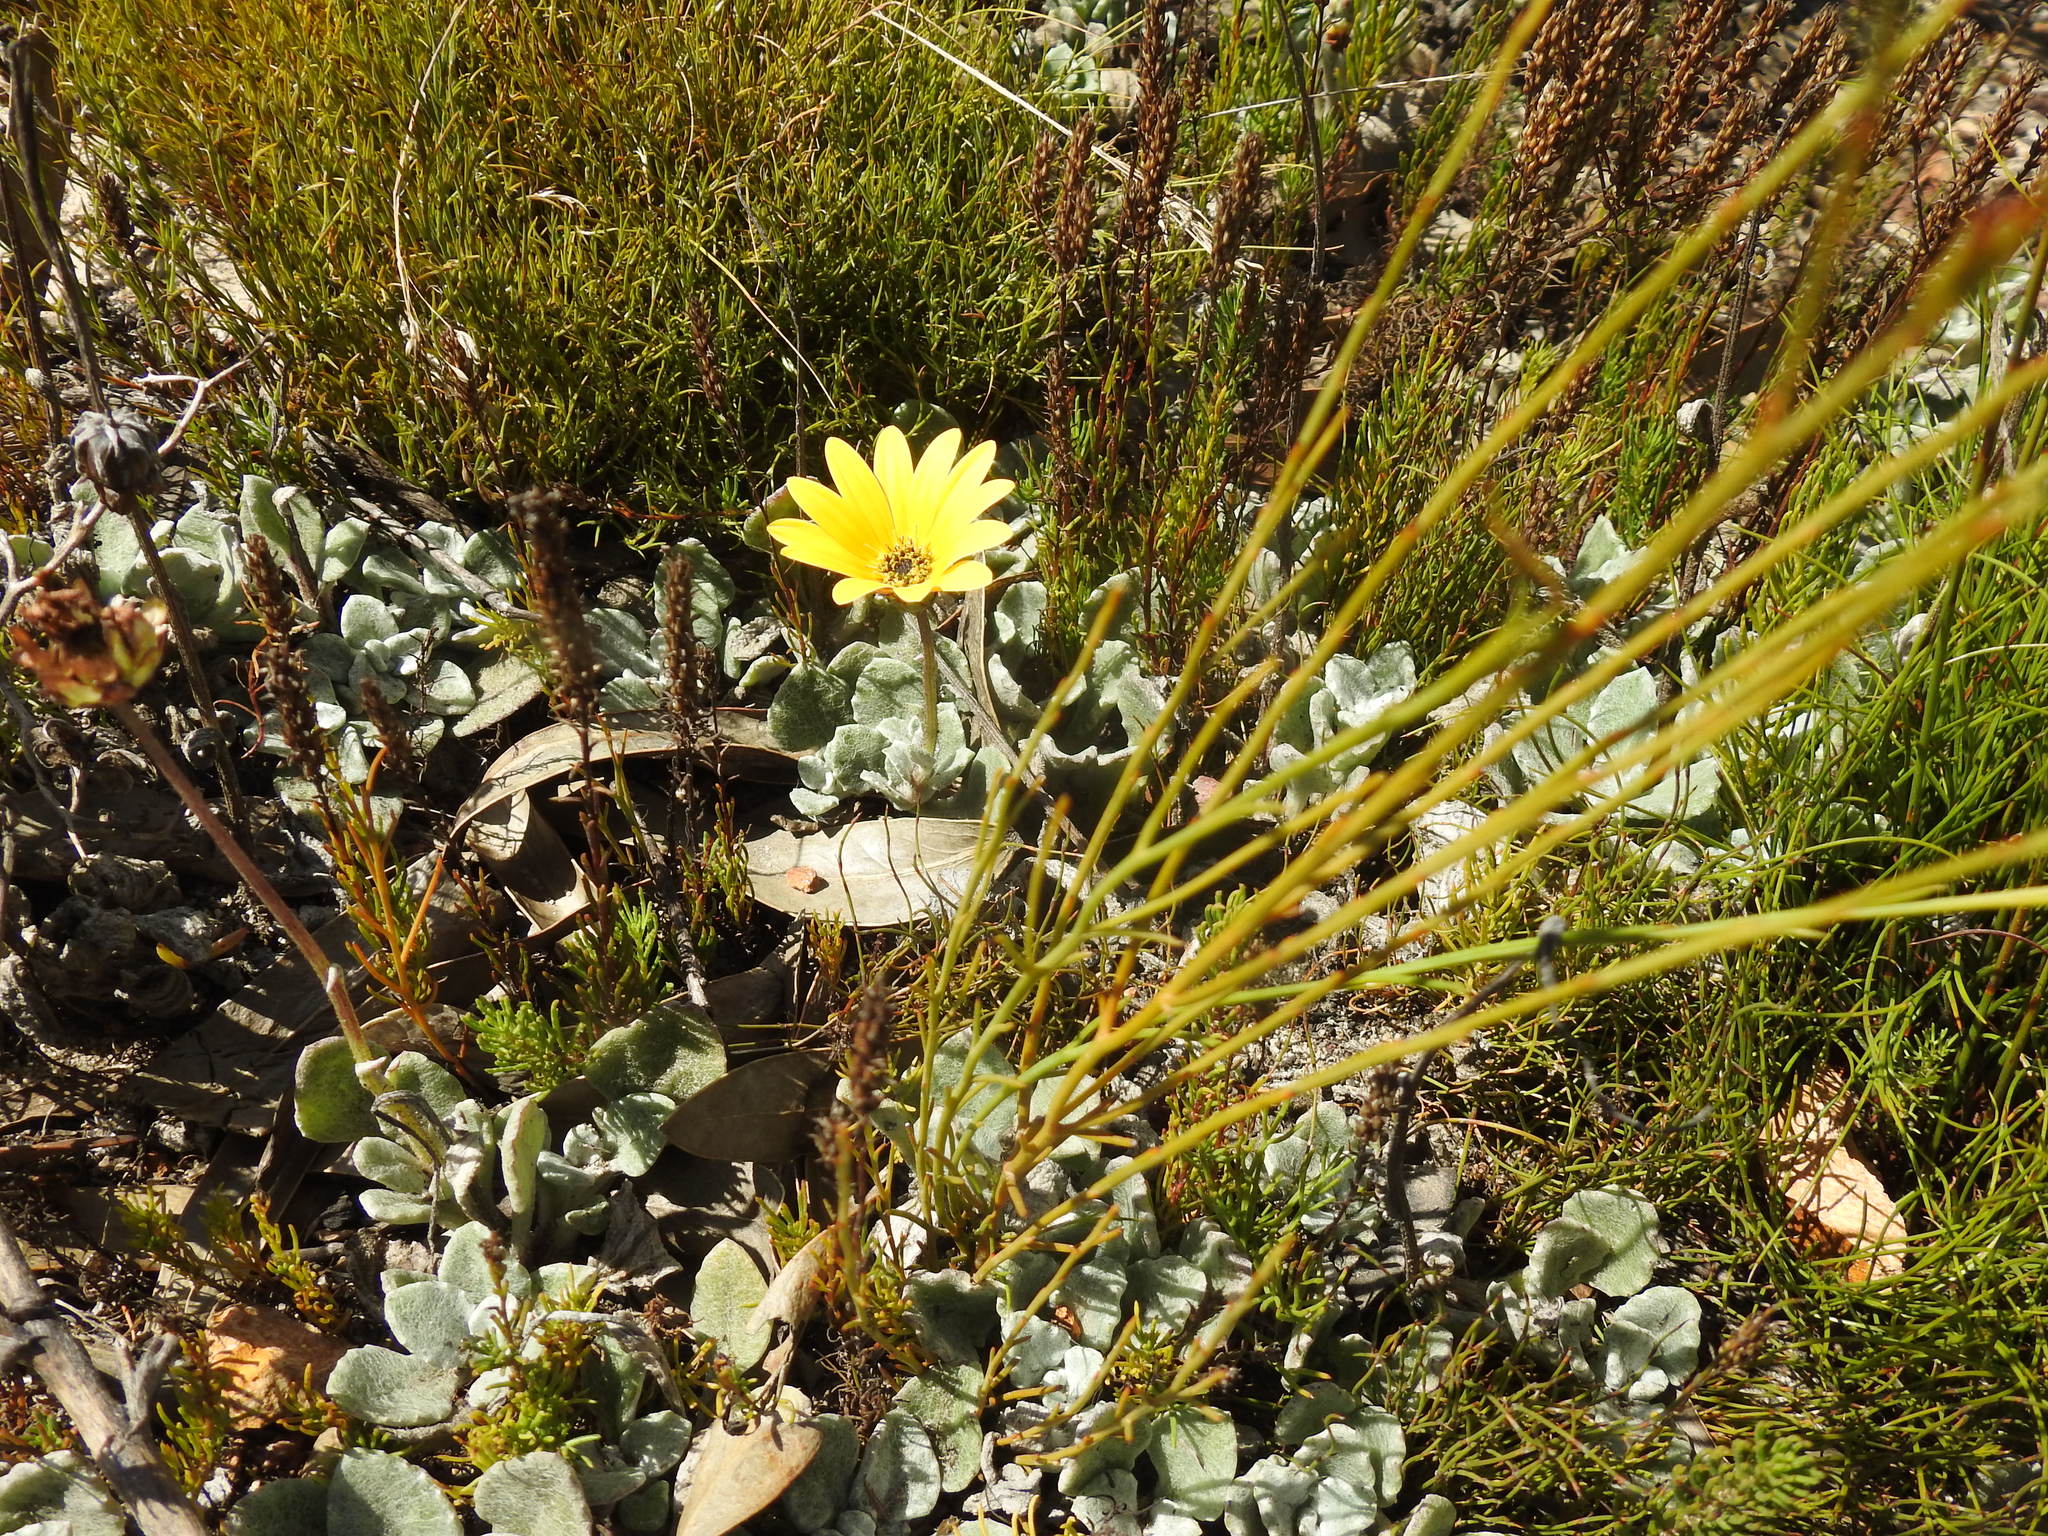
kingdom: Plantae
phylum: Tracheophyta
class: Magnoliopsida
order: Asterales
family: Asteraceae
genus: Arctotis
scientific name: Arctotis rotundifolia
